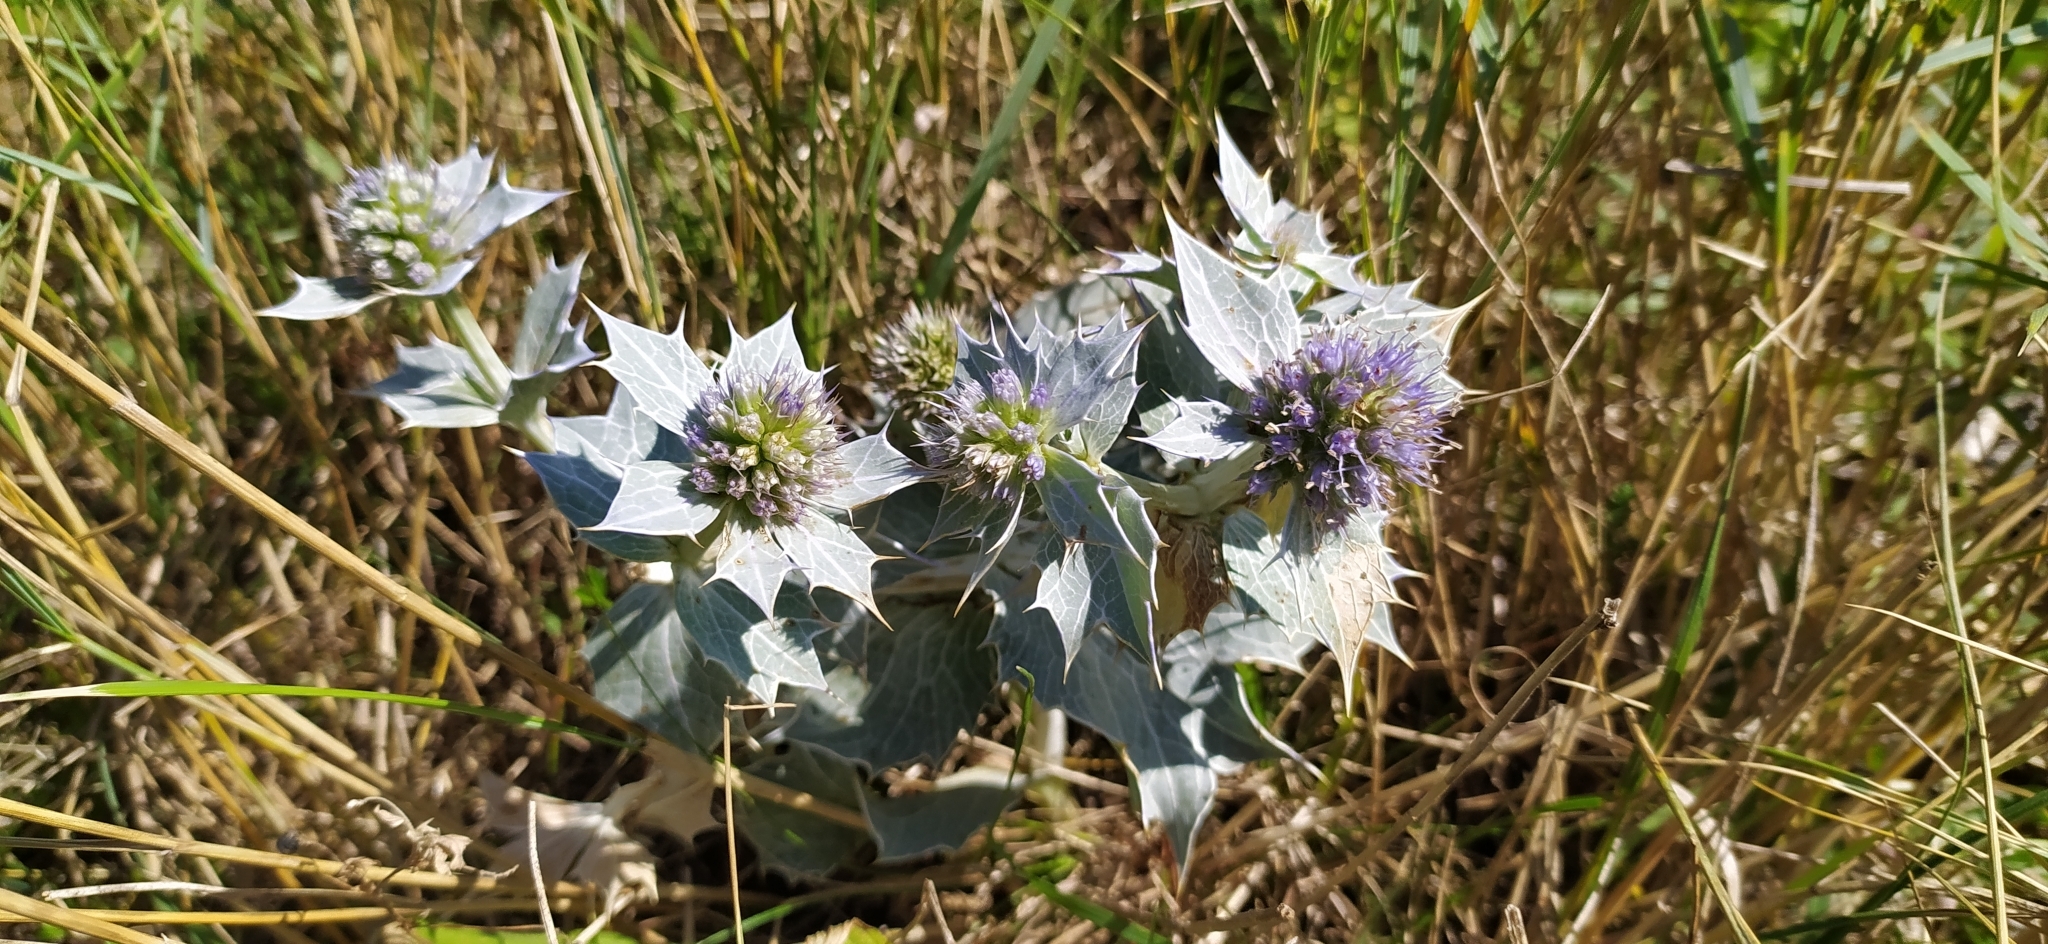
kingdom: Plantae
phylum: Tracheophyta
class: Magnoliopsida
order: Apiales
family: Apiaceae
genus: Eryngium
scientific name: Eryngium maritimum
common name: Sea-holly
